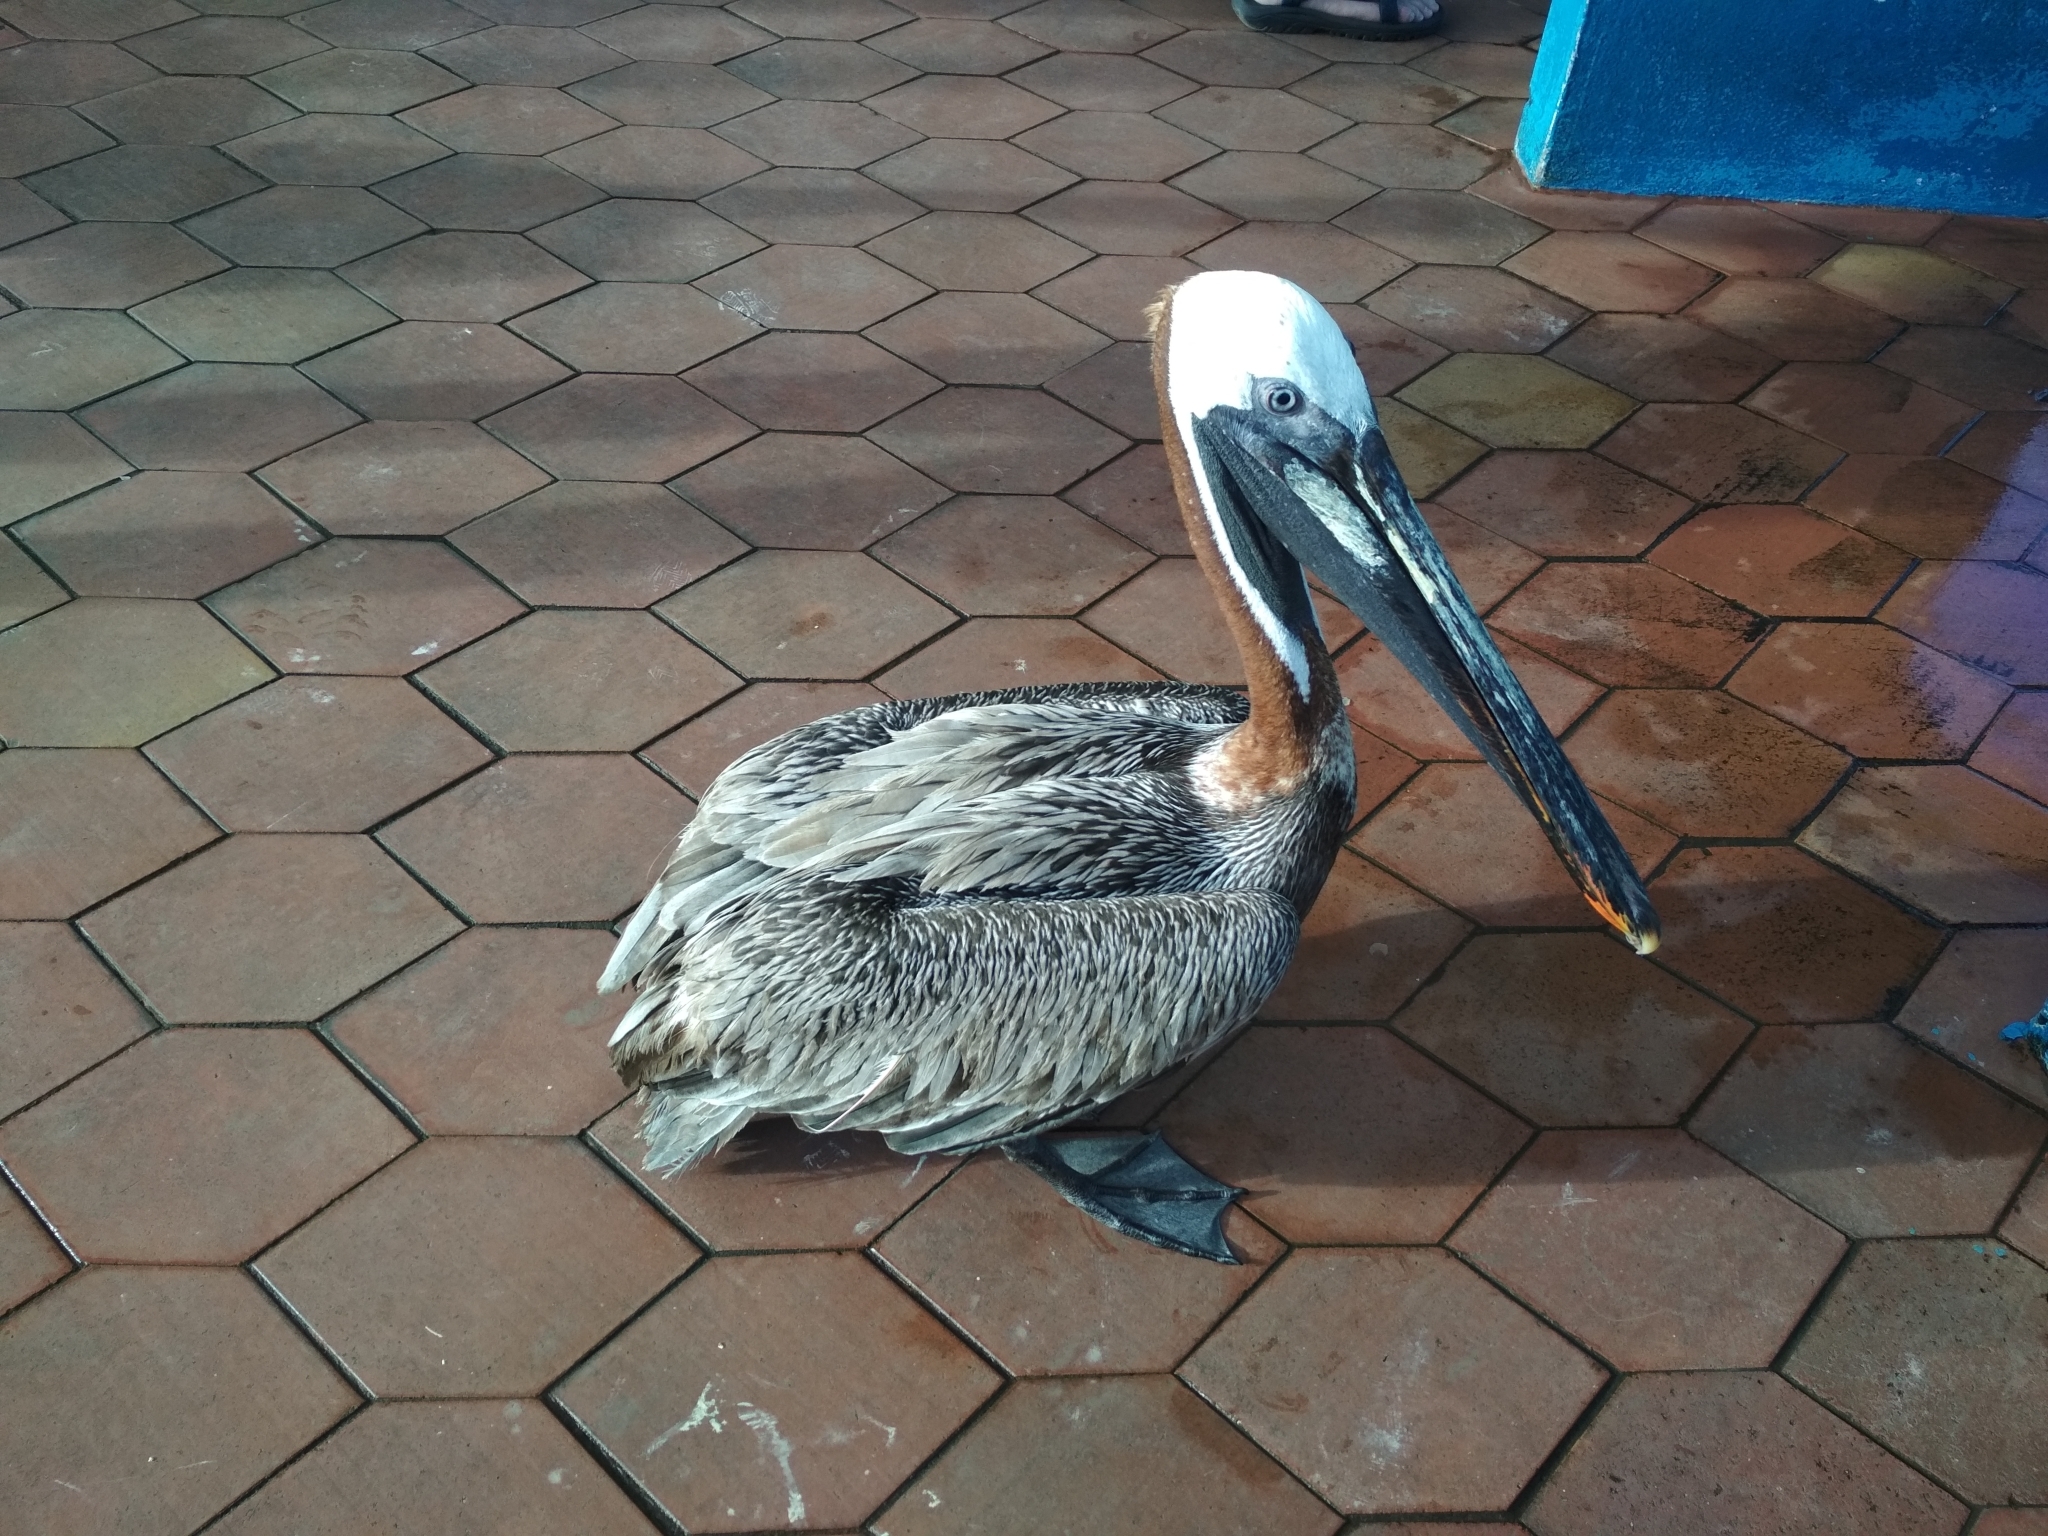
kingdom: Animalia
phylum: Chordata
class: Aves
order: Pelecaniformes
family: Pelecanidae
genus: Pelecanus
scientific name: Pelecanus occidentalis
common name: Brown pelican
